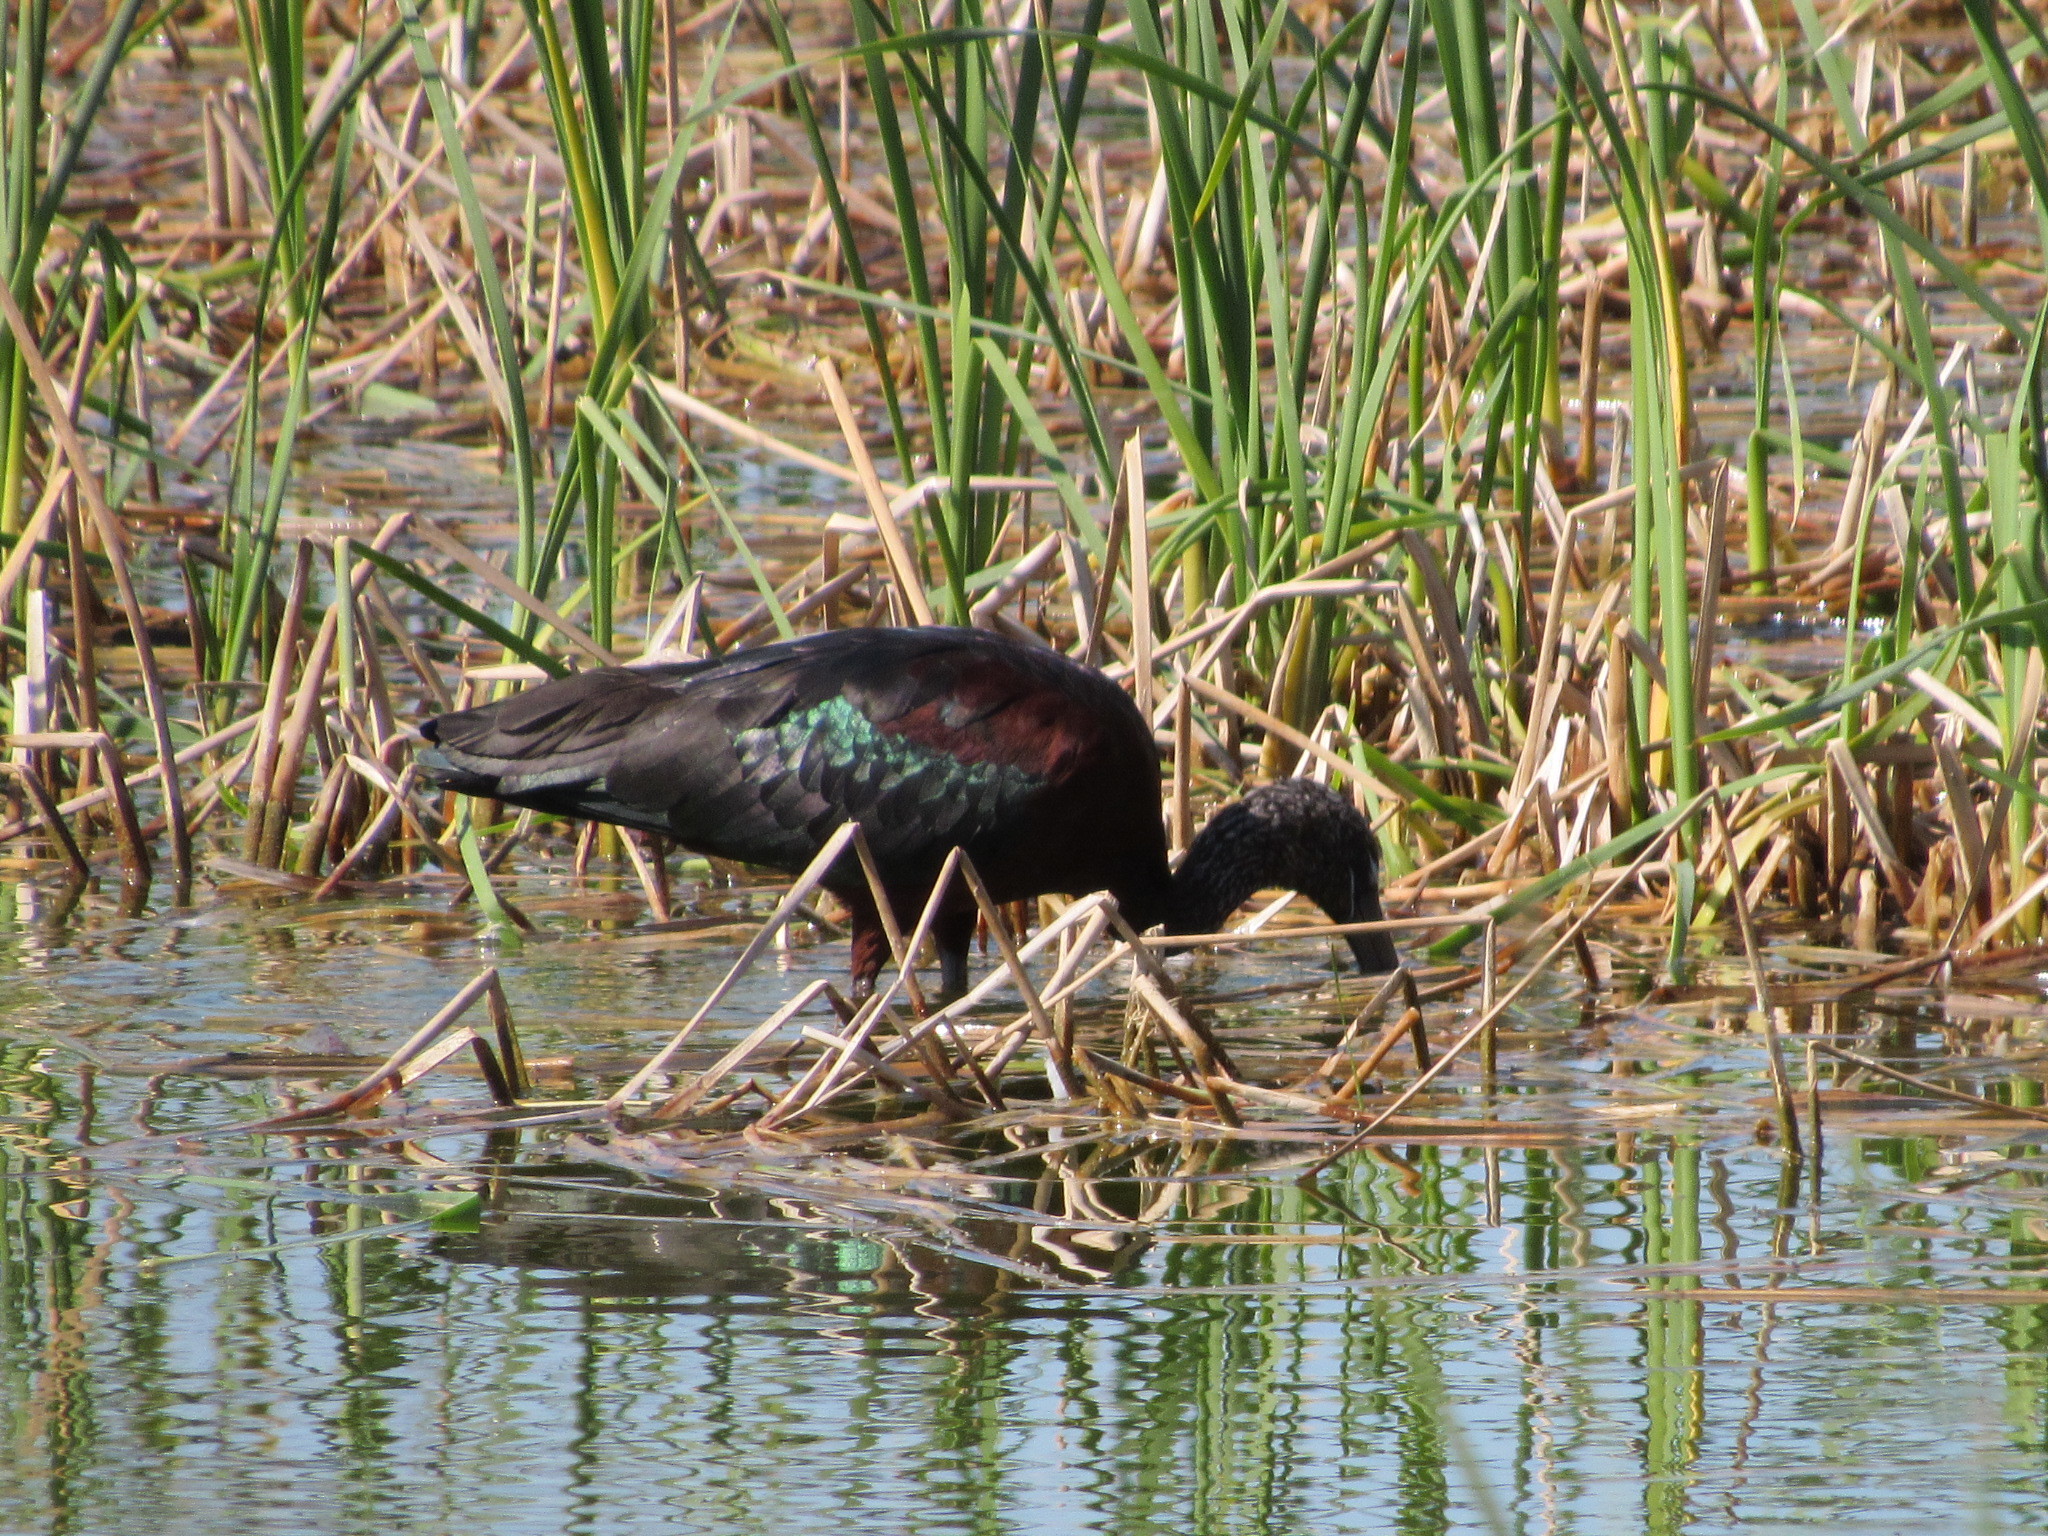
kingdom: Animalia
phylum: Chordata
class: Aves
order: Pelecaniformes
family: Threskiornithidae
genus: Plegadis
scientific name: Plegadis falcinellus
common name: Glossy ibis
